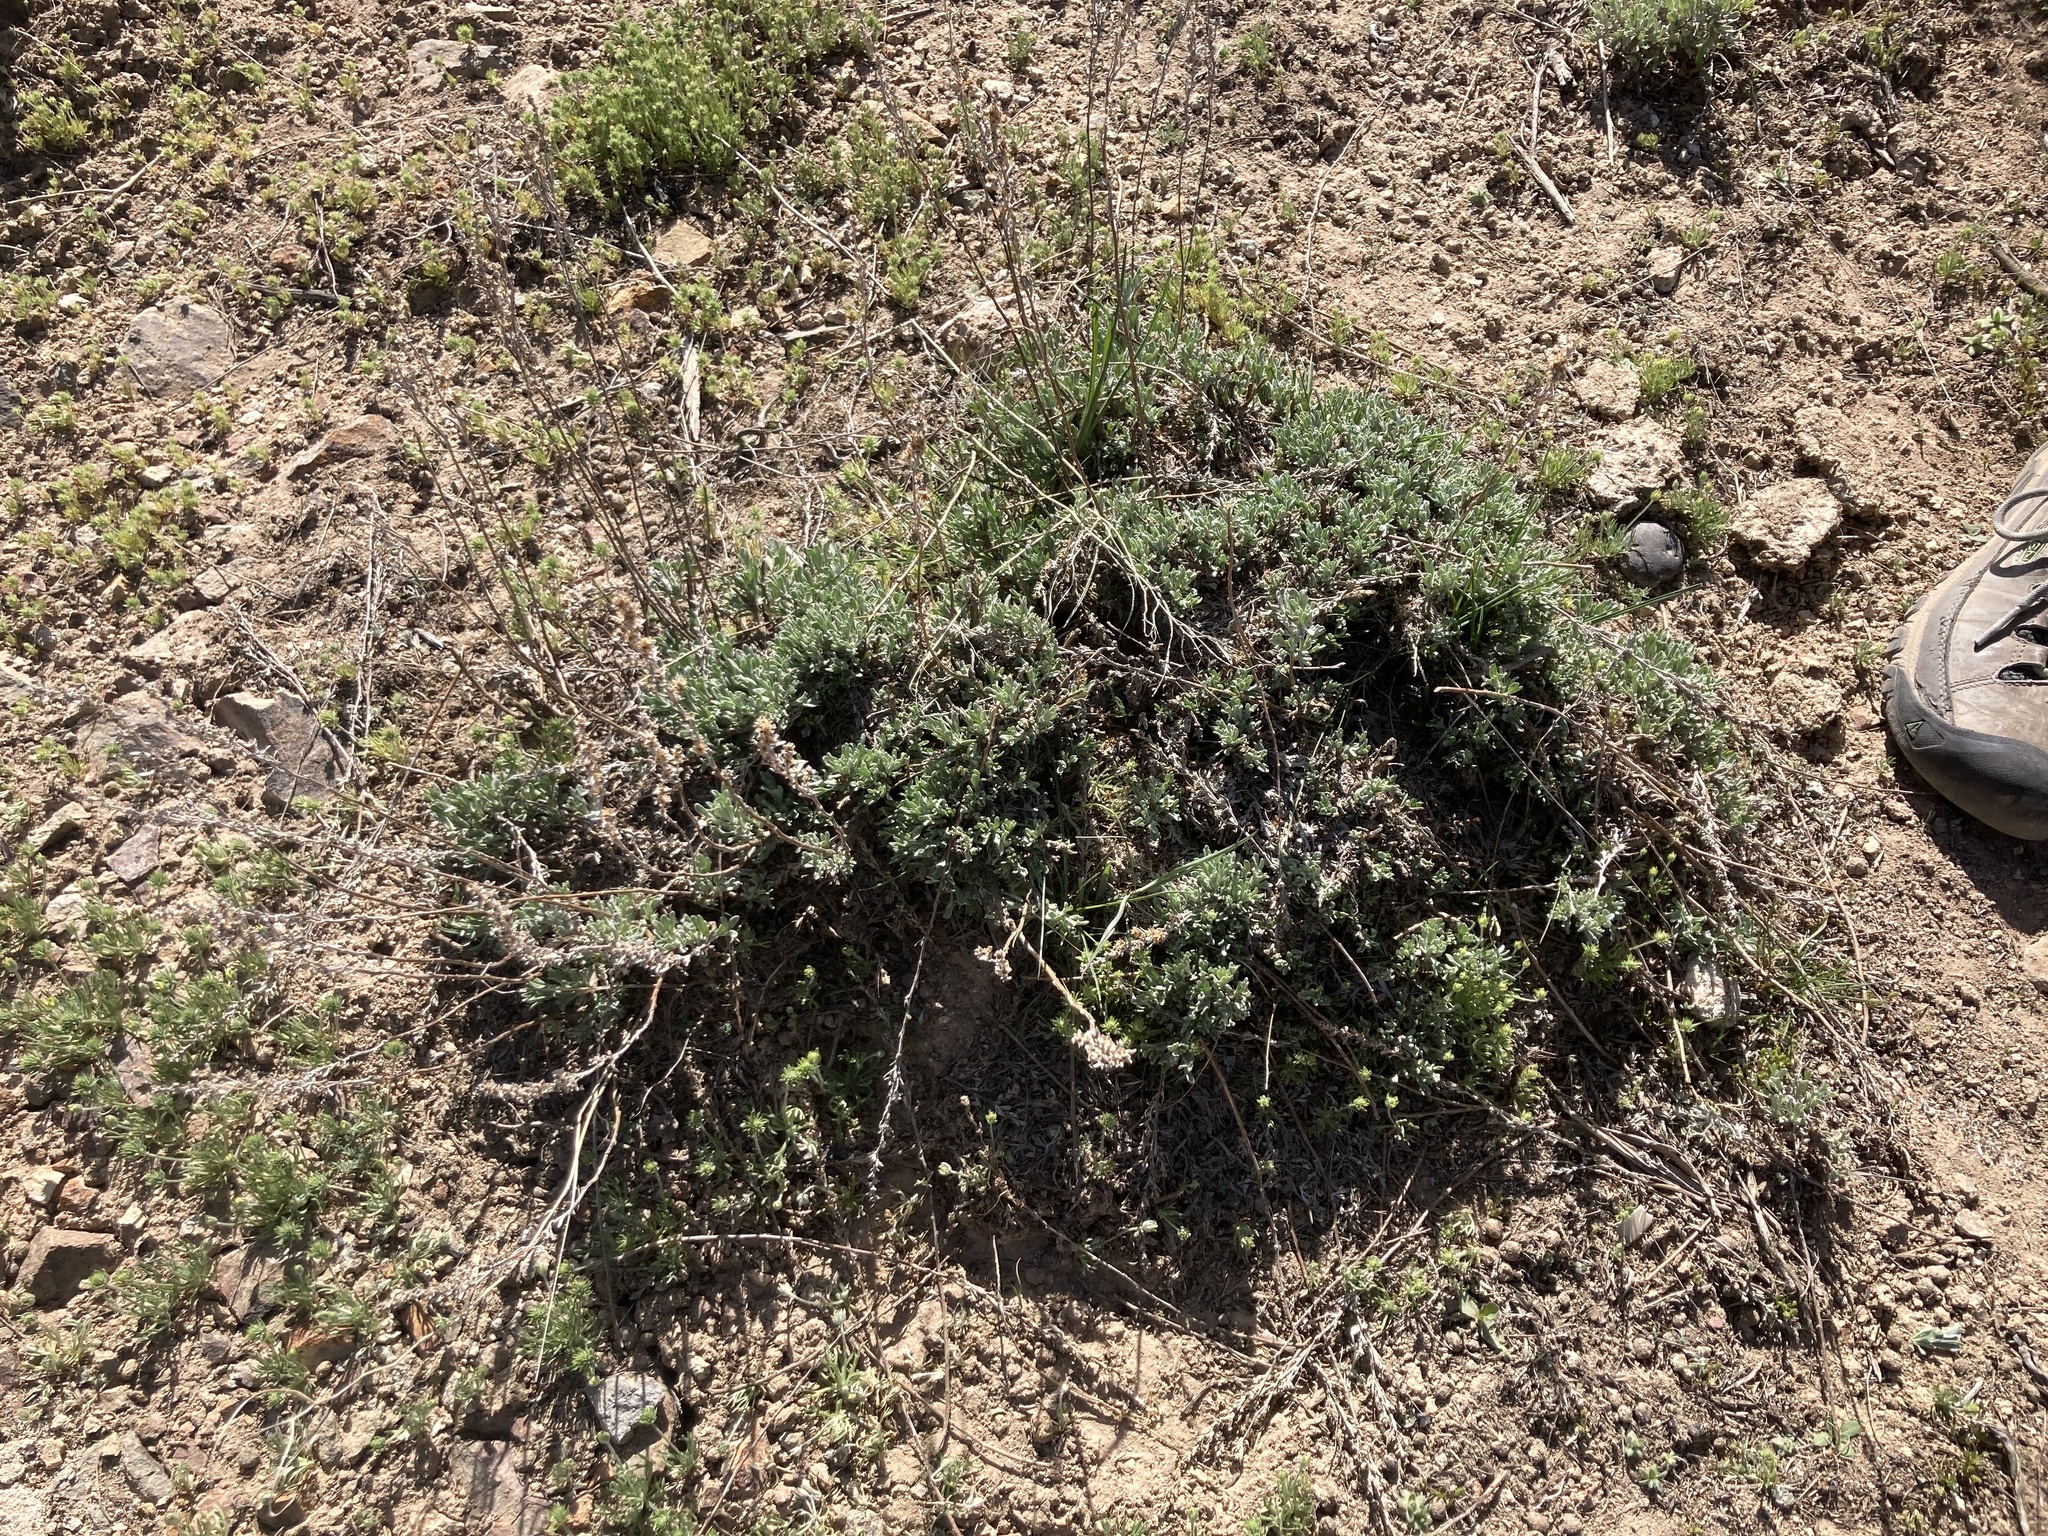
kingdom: Plantae
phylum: Tracheophyta
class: Magnoliopsida
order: Asterales
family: Asteraceae
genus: Artemisia
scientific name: Artemisia arbuscula
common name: Sagebrush
